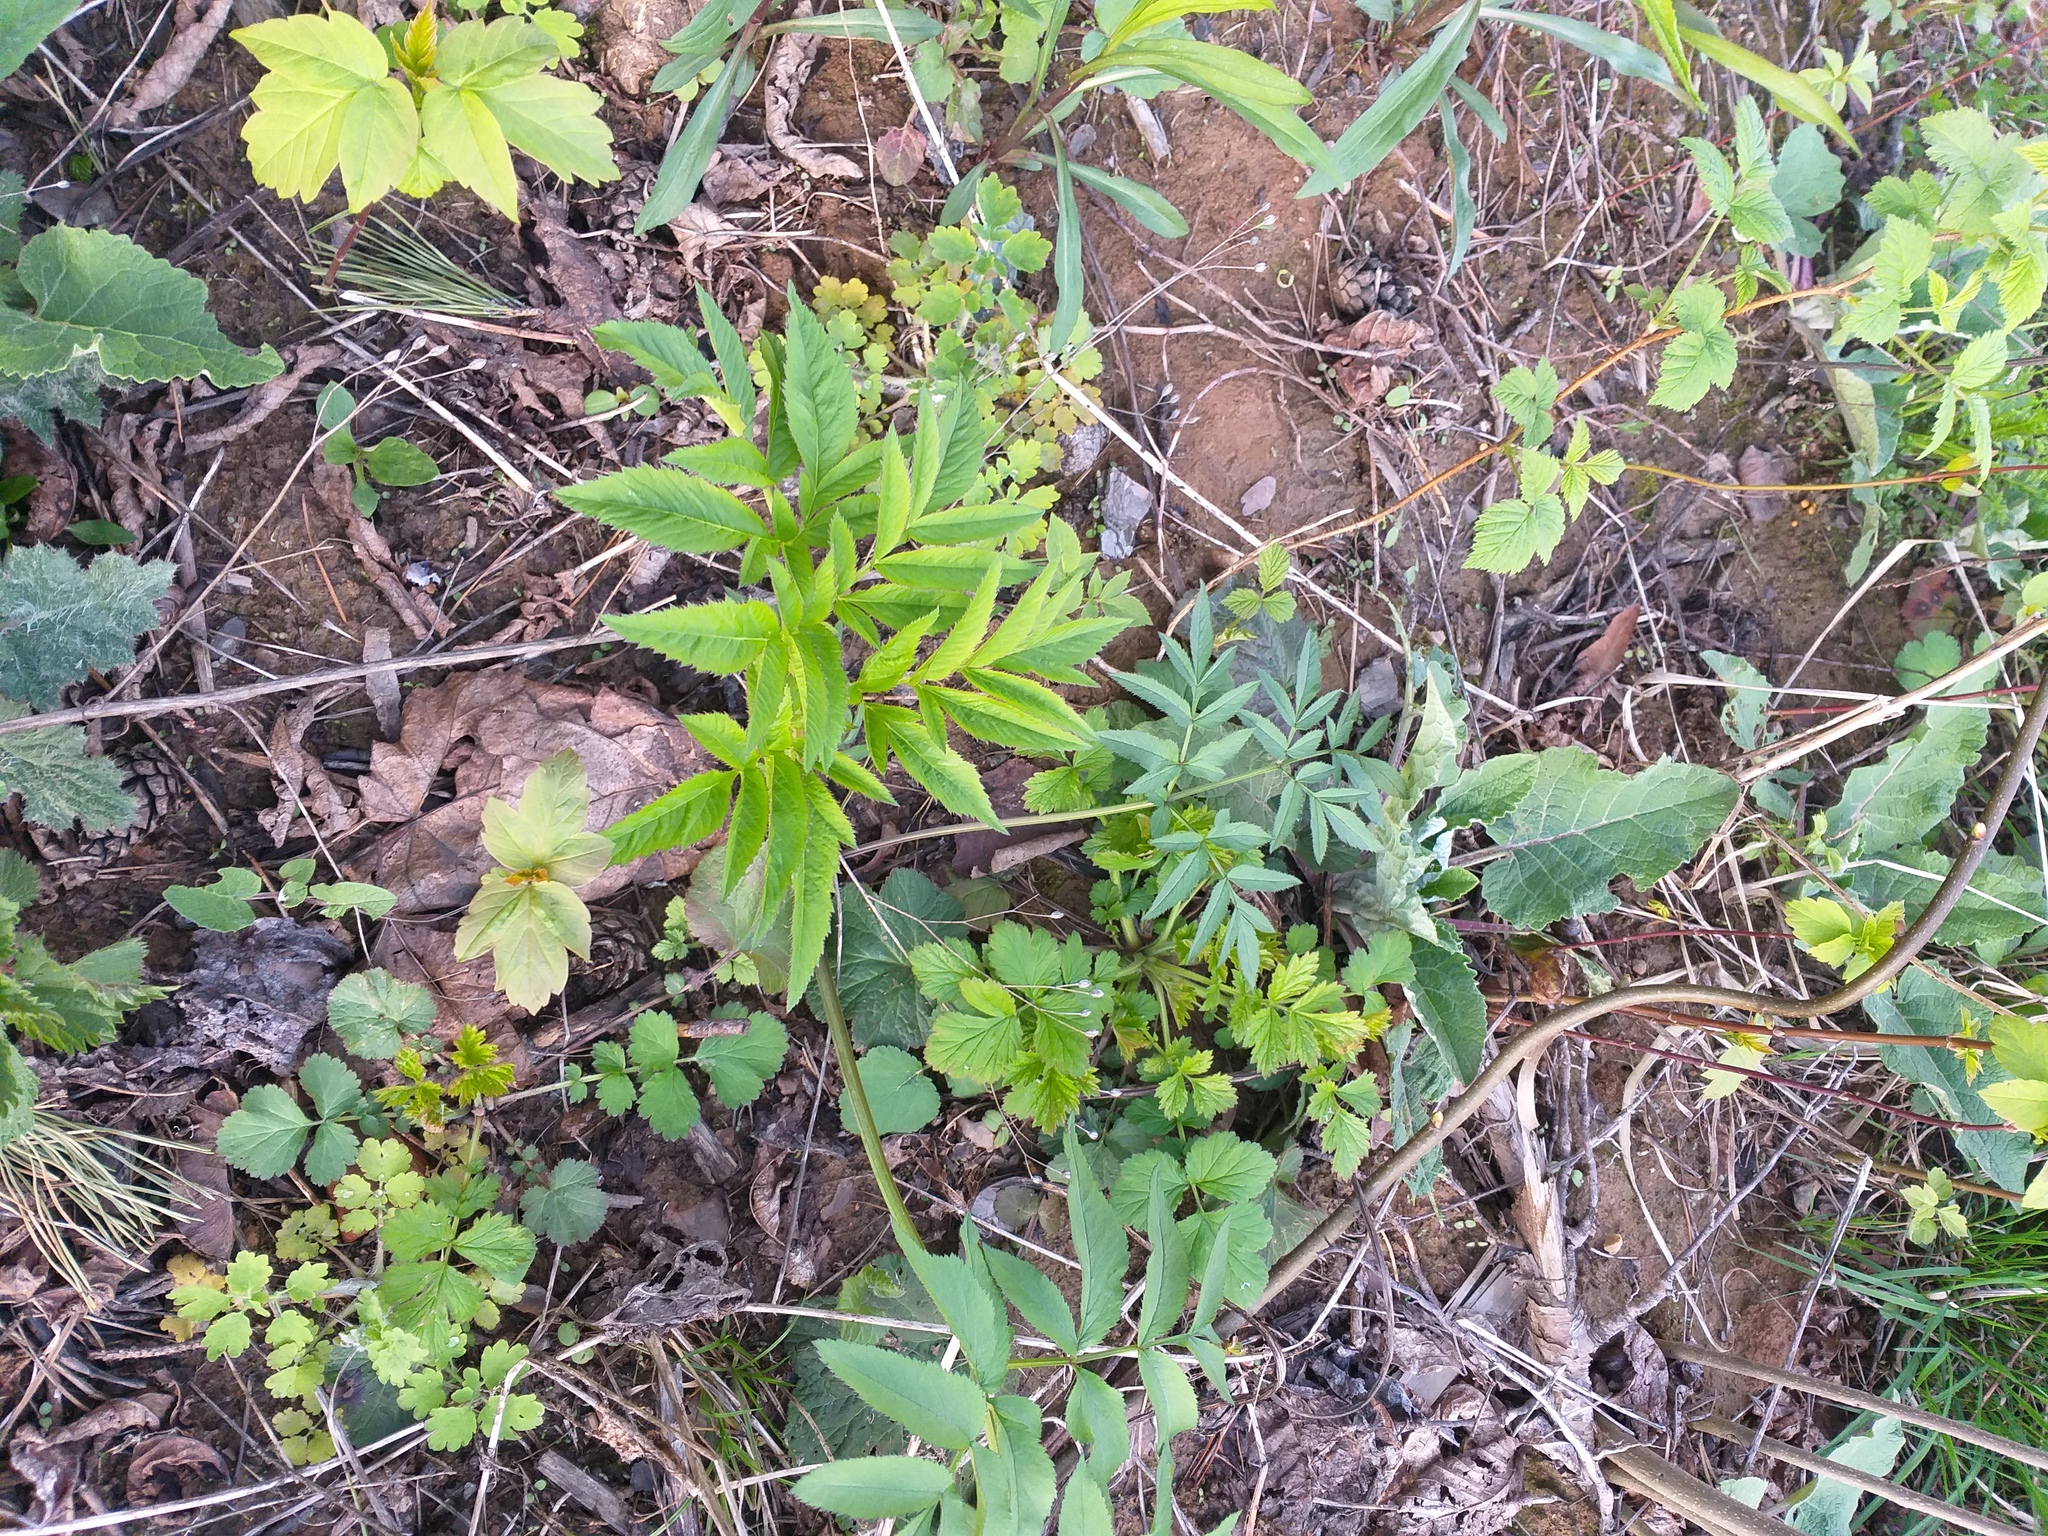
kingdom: Plantae
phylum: Tracheophyta
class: Magnoliopsida
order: Apiales
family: Apiaceae
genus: Angelica
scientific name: Angelica sylvestris
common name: Wild angelica
